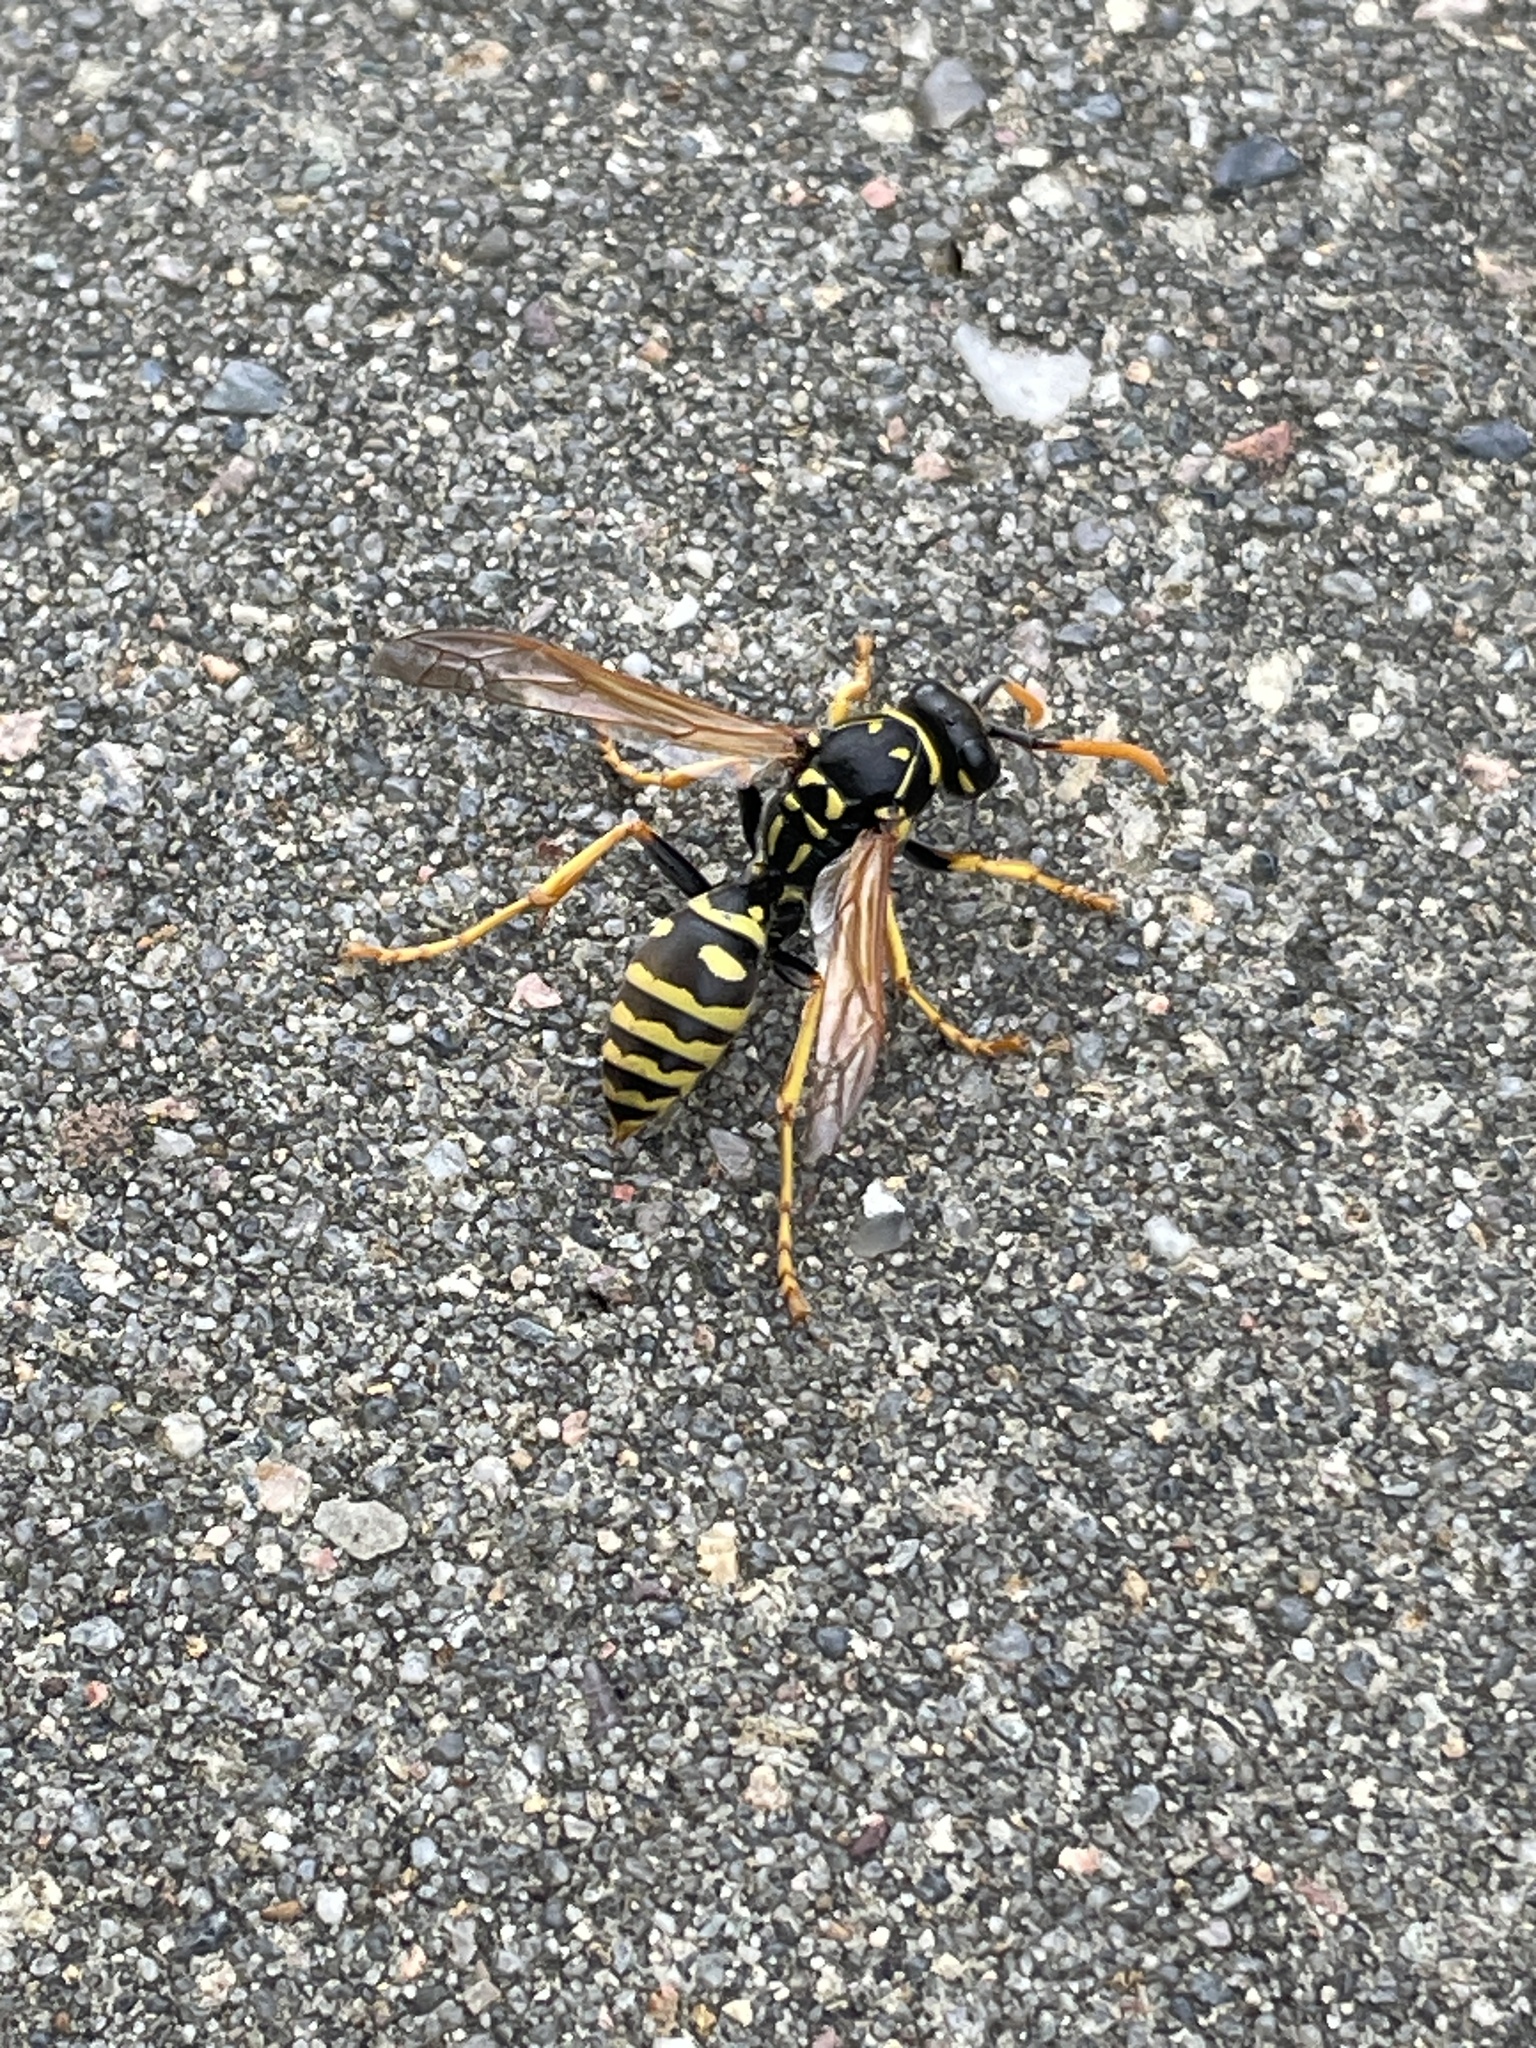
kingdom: Animalia
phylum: Arthropoda
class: Insecta
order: Hymenoptera
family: Eumenidae
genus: Polistes
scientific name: Polistes dominula
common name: Paper wasp
